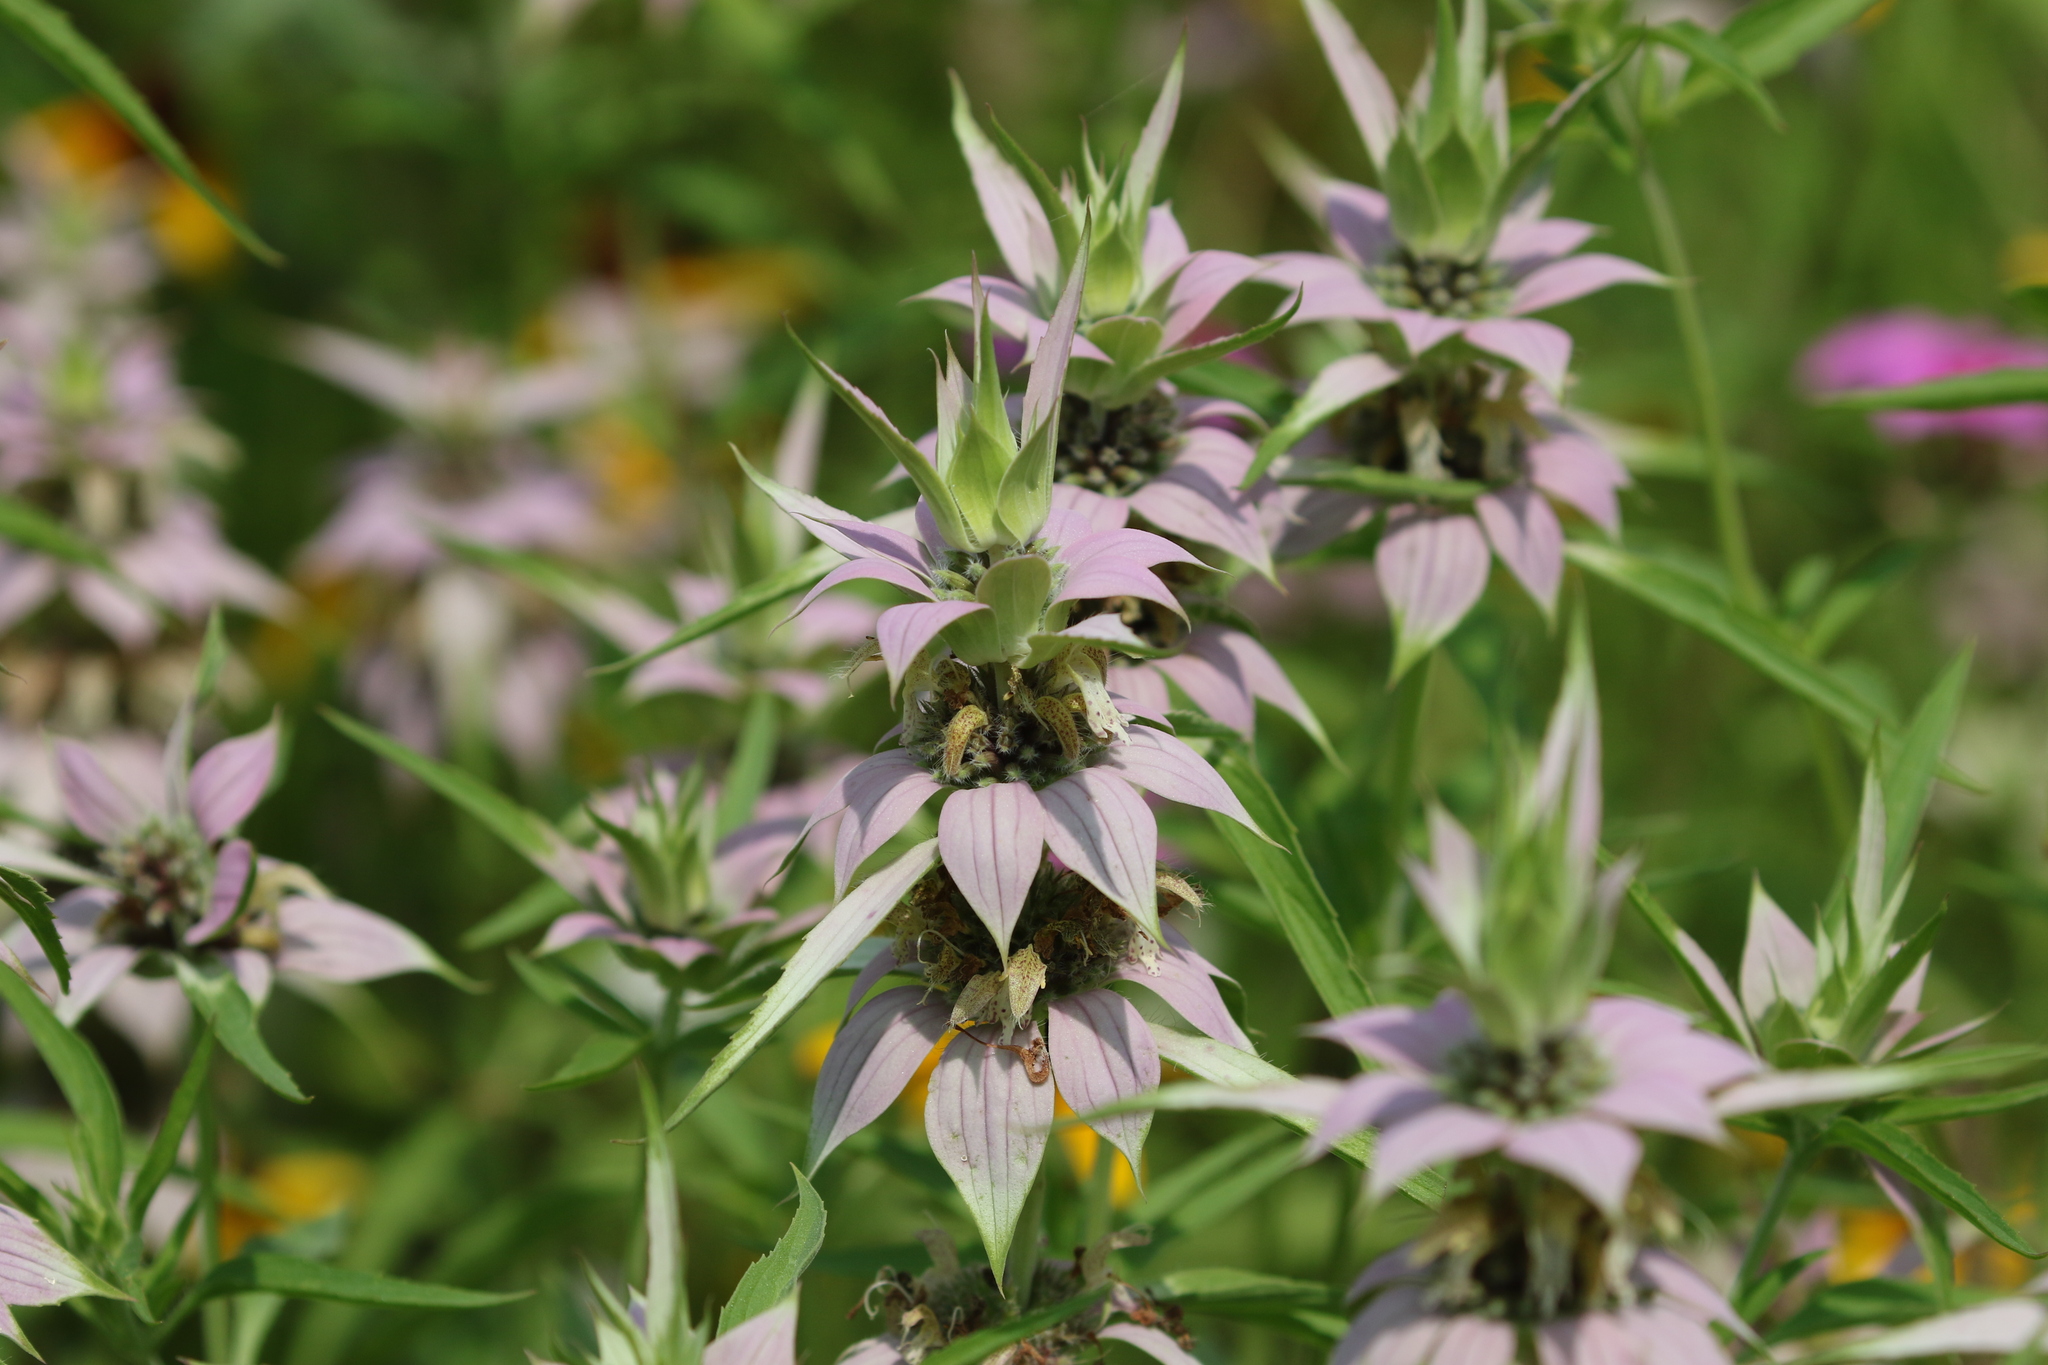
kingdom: Plantae
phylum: Tracheophyta
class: Magnoliopsida
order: Lamiales
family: Lamiaceae
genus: Monarda
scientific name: Monarda punctata
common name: Dotted monarda
